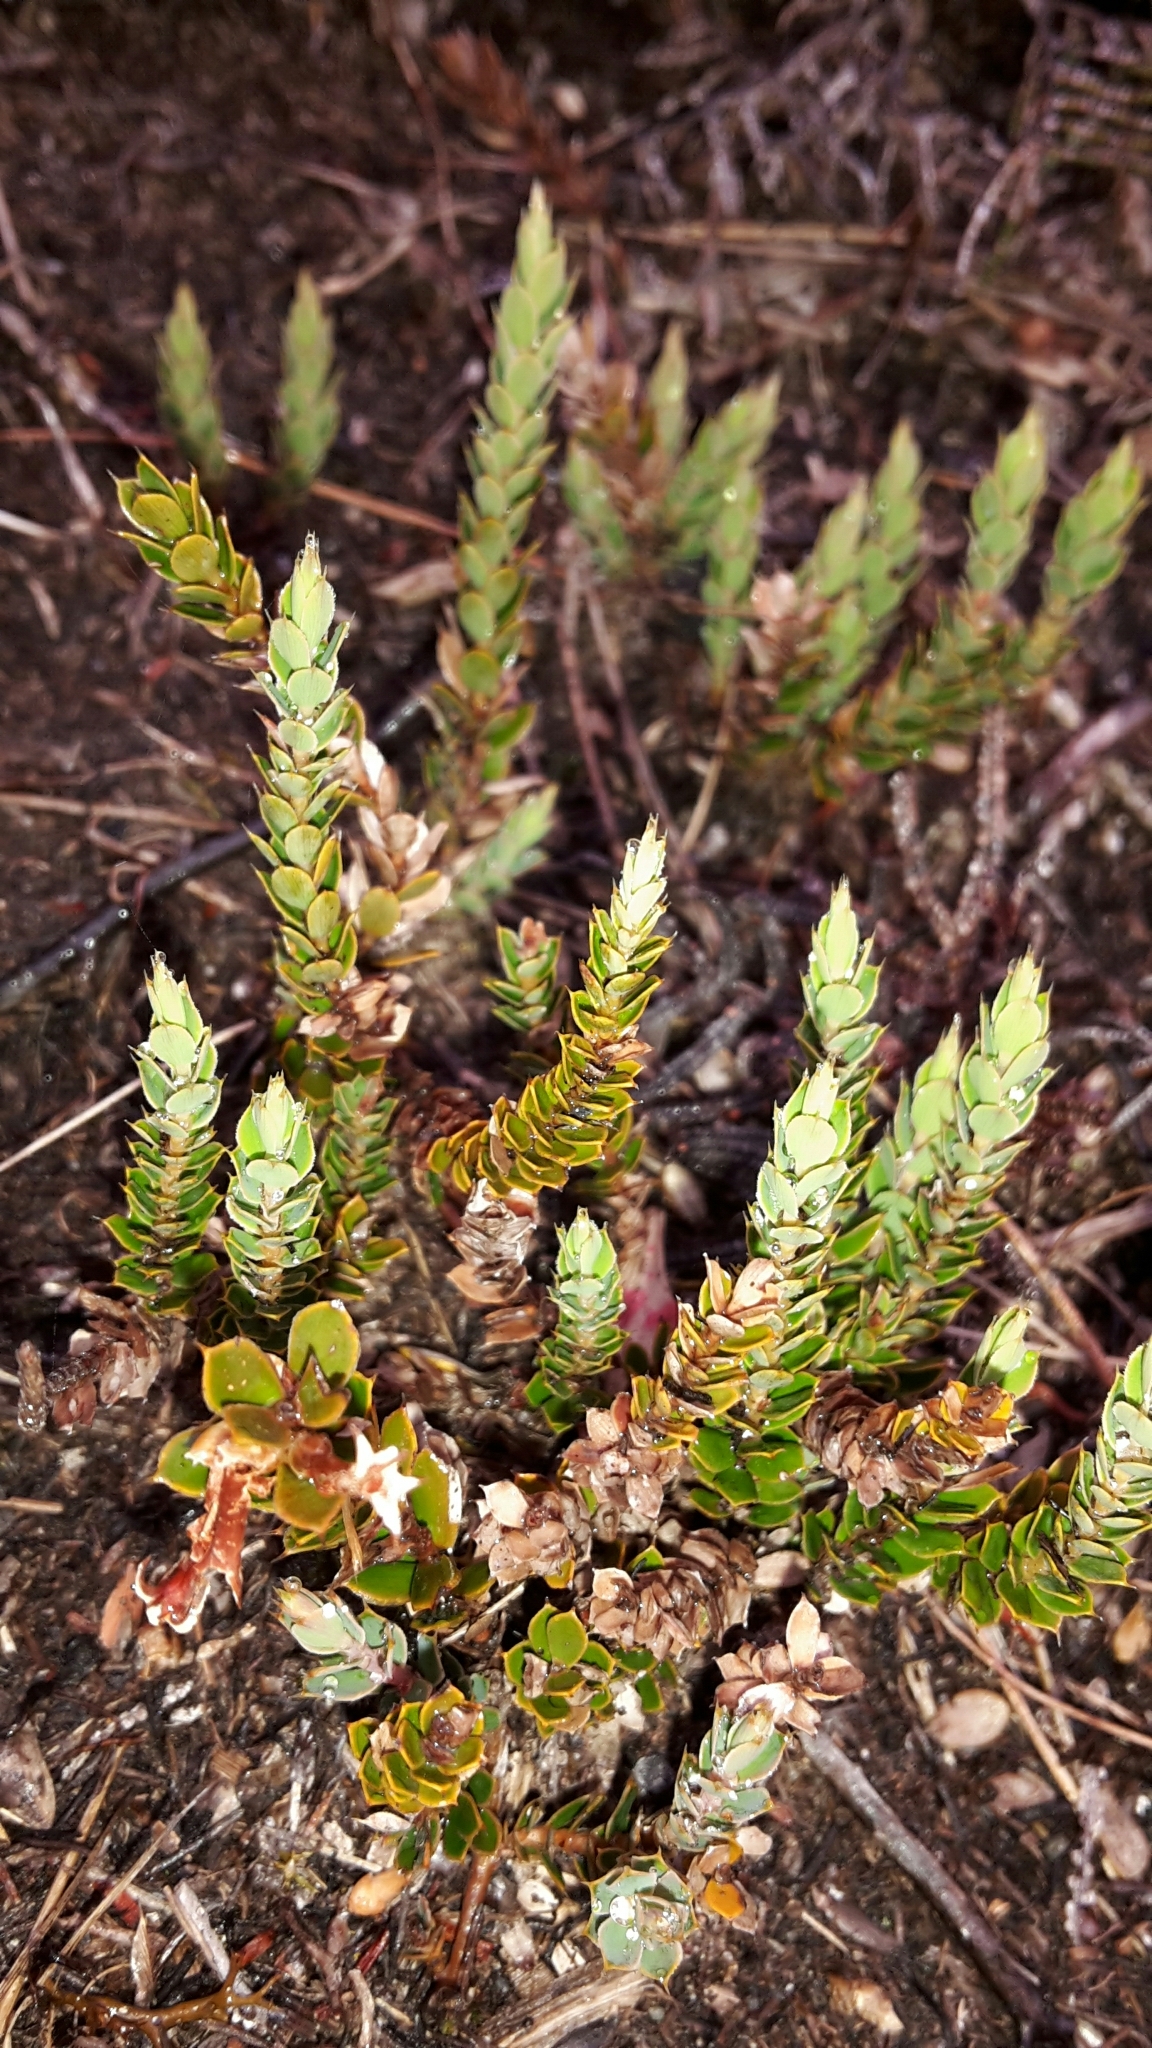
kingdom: Plantae
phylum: Tracheophyta
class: Magnoliopsida
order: Ericales
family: Ericaceae
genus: Styphelia
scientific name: Styphelia nesophila
